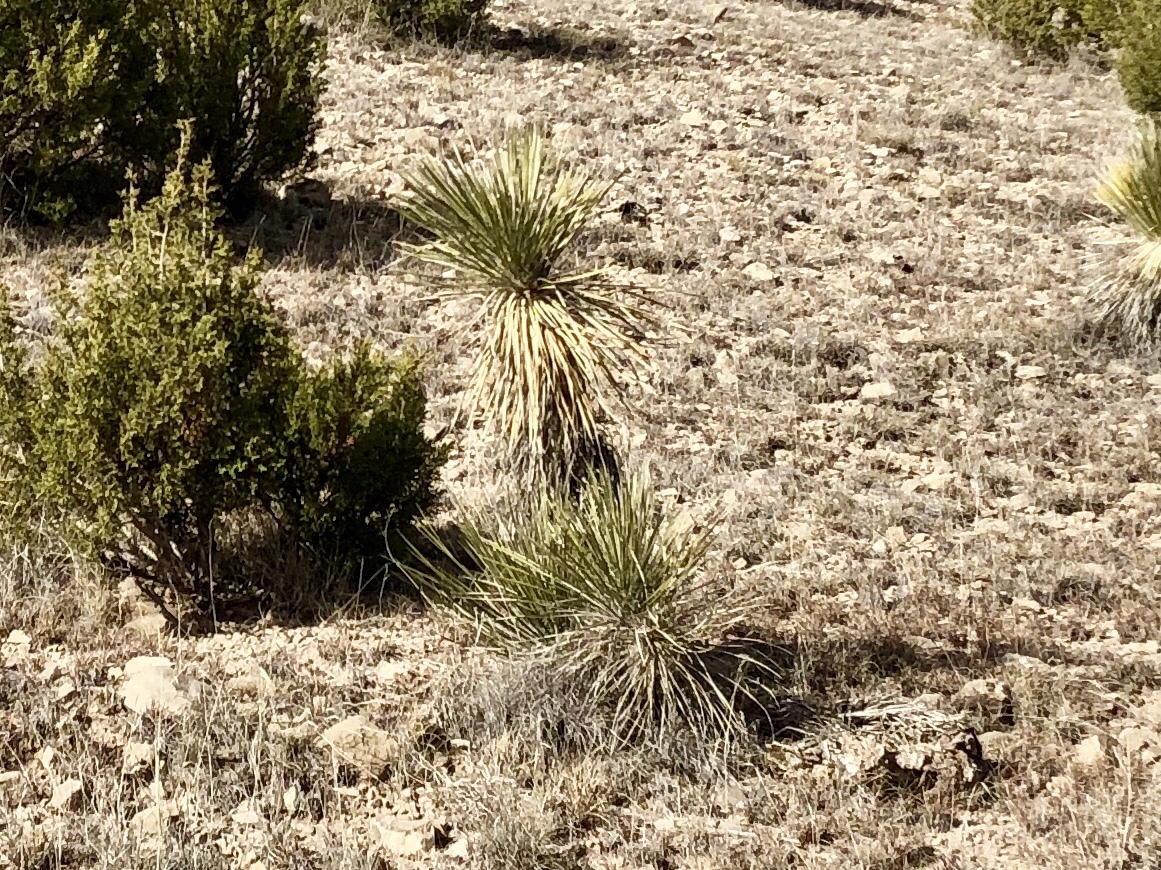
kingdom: Plantae
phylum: Tracheophyta
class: Liliopsida
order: Asparagales
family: Asparagaceae
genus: Yucca
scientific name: Yucca elata
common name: Palmella
